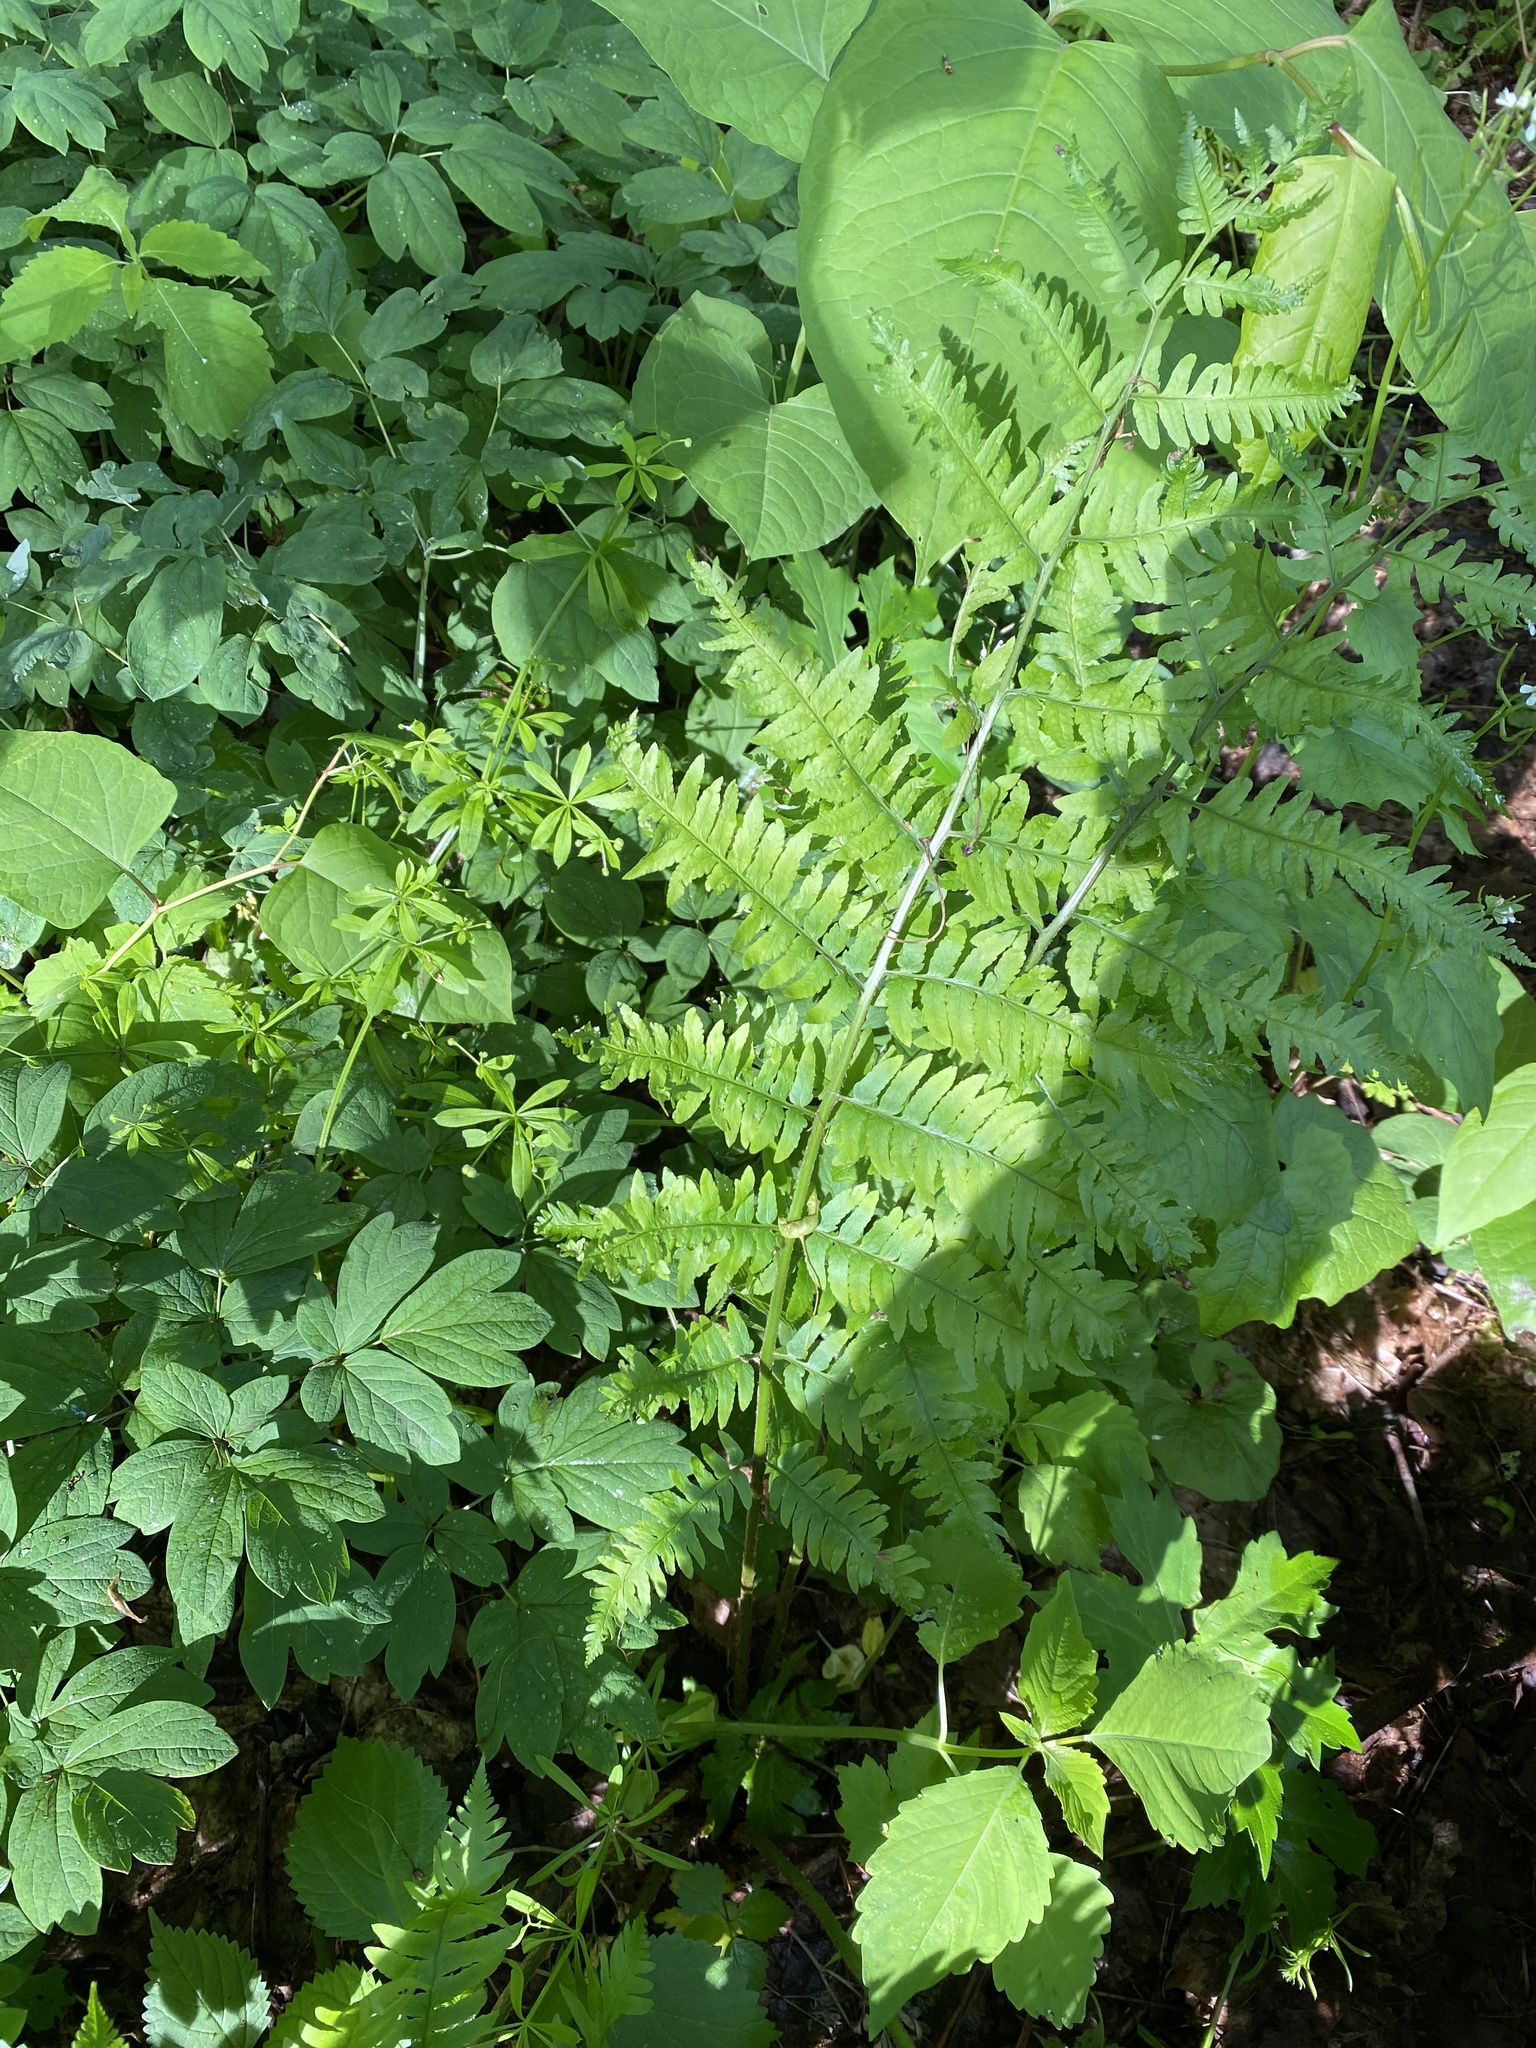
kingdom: Plantae
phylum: Tracheophyta
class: Polypodiopsida
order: Polypodiales
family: Dryopteridaceae
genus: Dryopteris
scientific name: Dryopteris goldieana
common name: Goldie's fern
